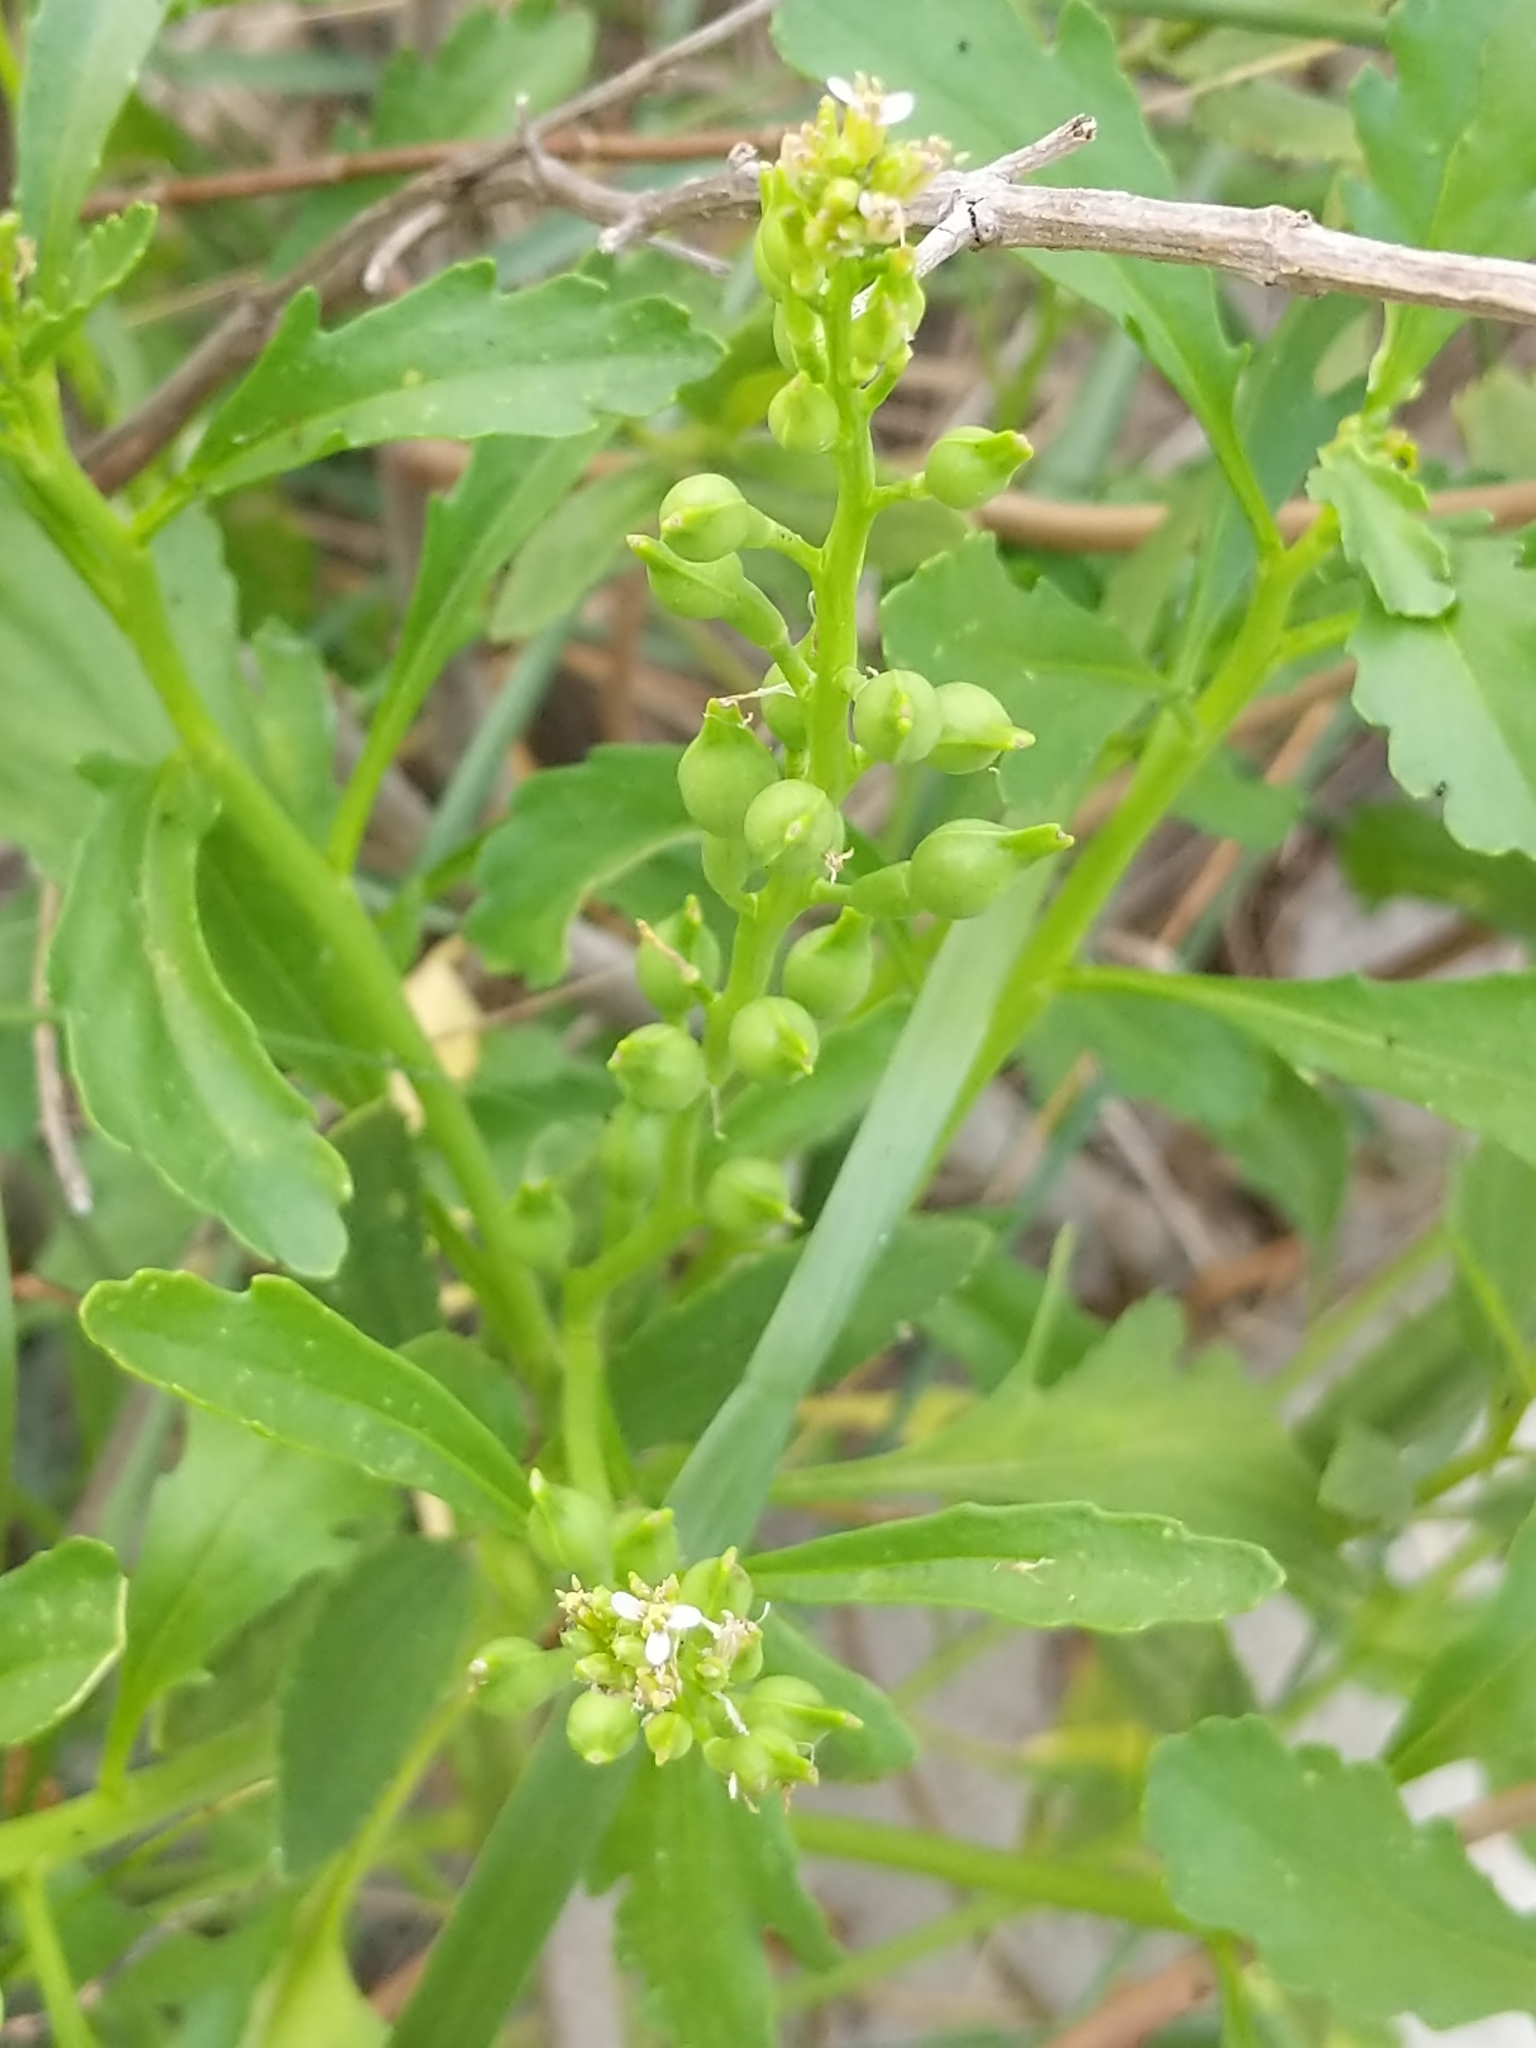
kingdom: Plantae
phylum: Tracheophyta
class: Magnoliopsida
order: Brassicales
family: Brassicaceae
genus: Cakile
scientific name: Cakile edentula
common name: American sea rocket
